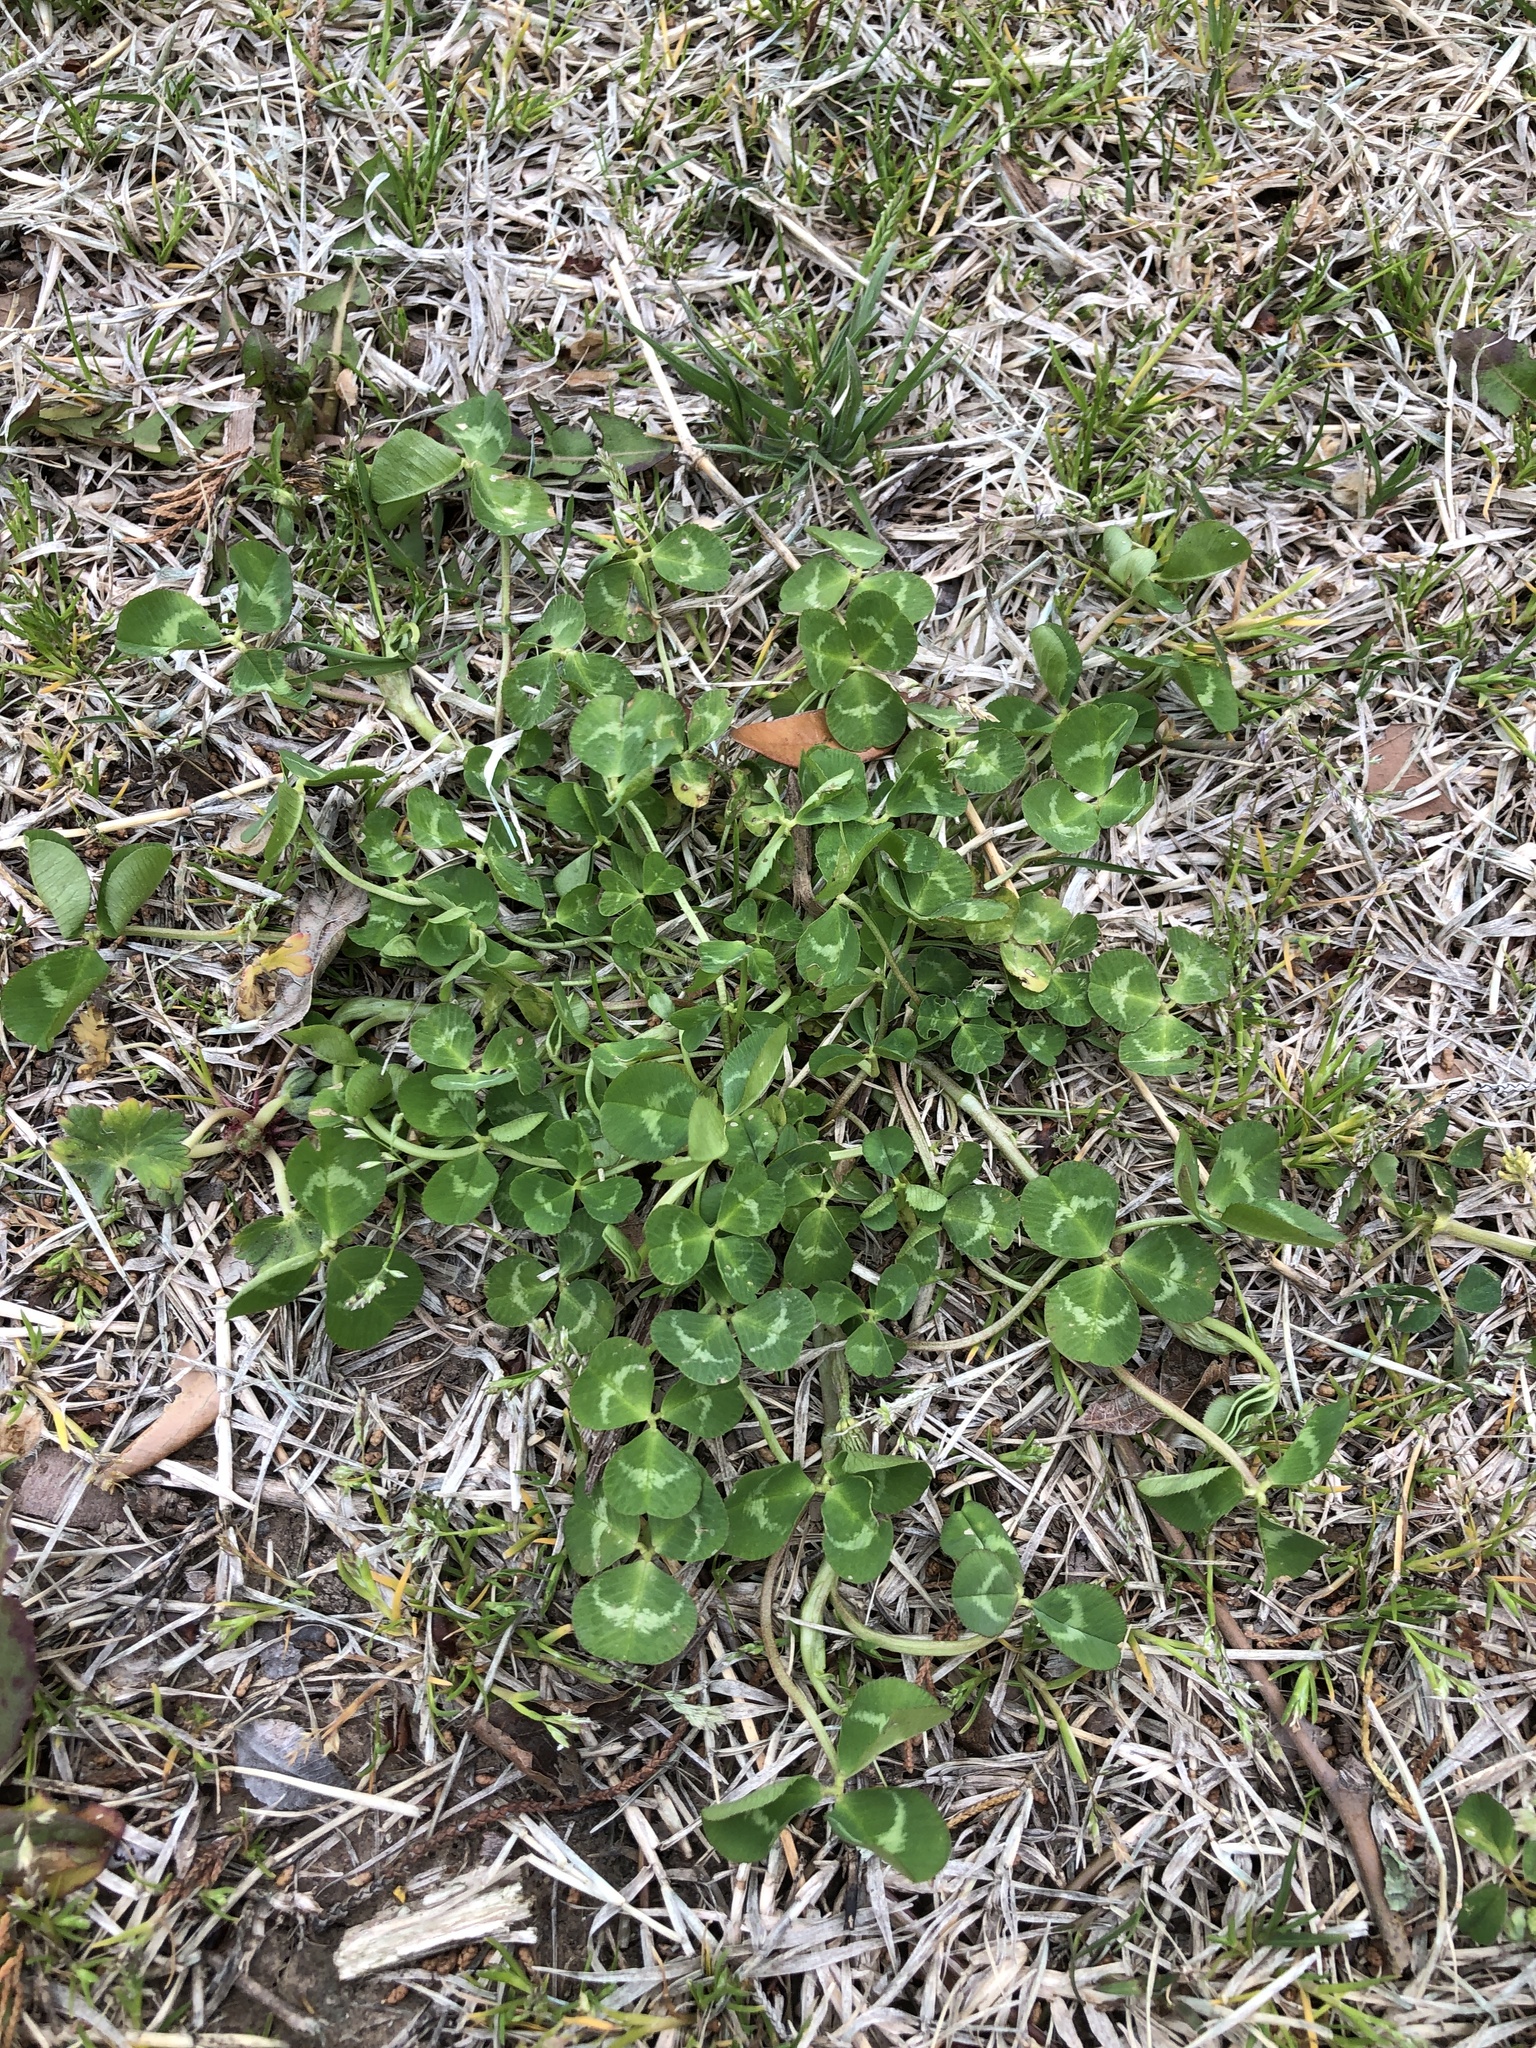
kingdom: Plantae
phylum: Tracheophyta
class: Magnoliopsida
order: Fabales
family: Fabaceae
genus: Trifolium
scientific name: Trifolium repens
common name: White clover
